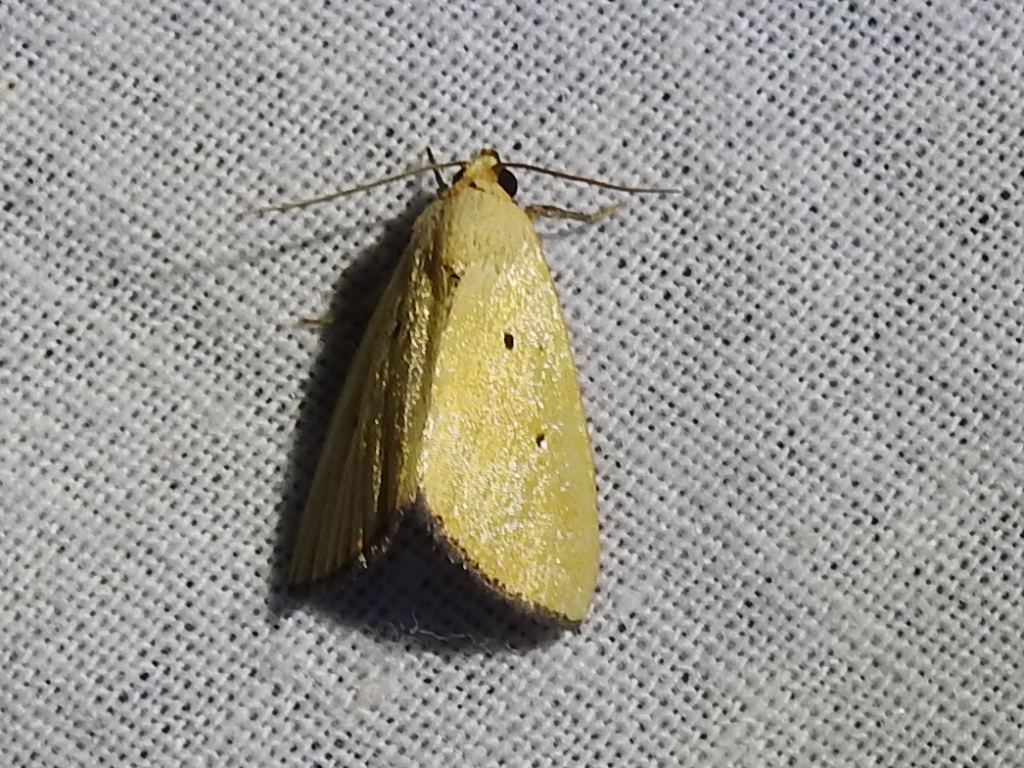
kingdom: Animalia
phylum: Arthropoda
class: Insecta
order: Lepidoptera
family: Noctuidae
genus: Marimatha
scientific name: Marimatha nigrofimbria
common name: Black-bordered lemon moth
